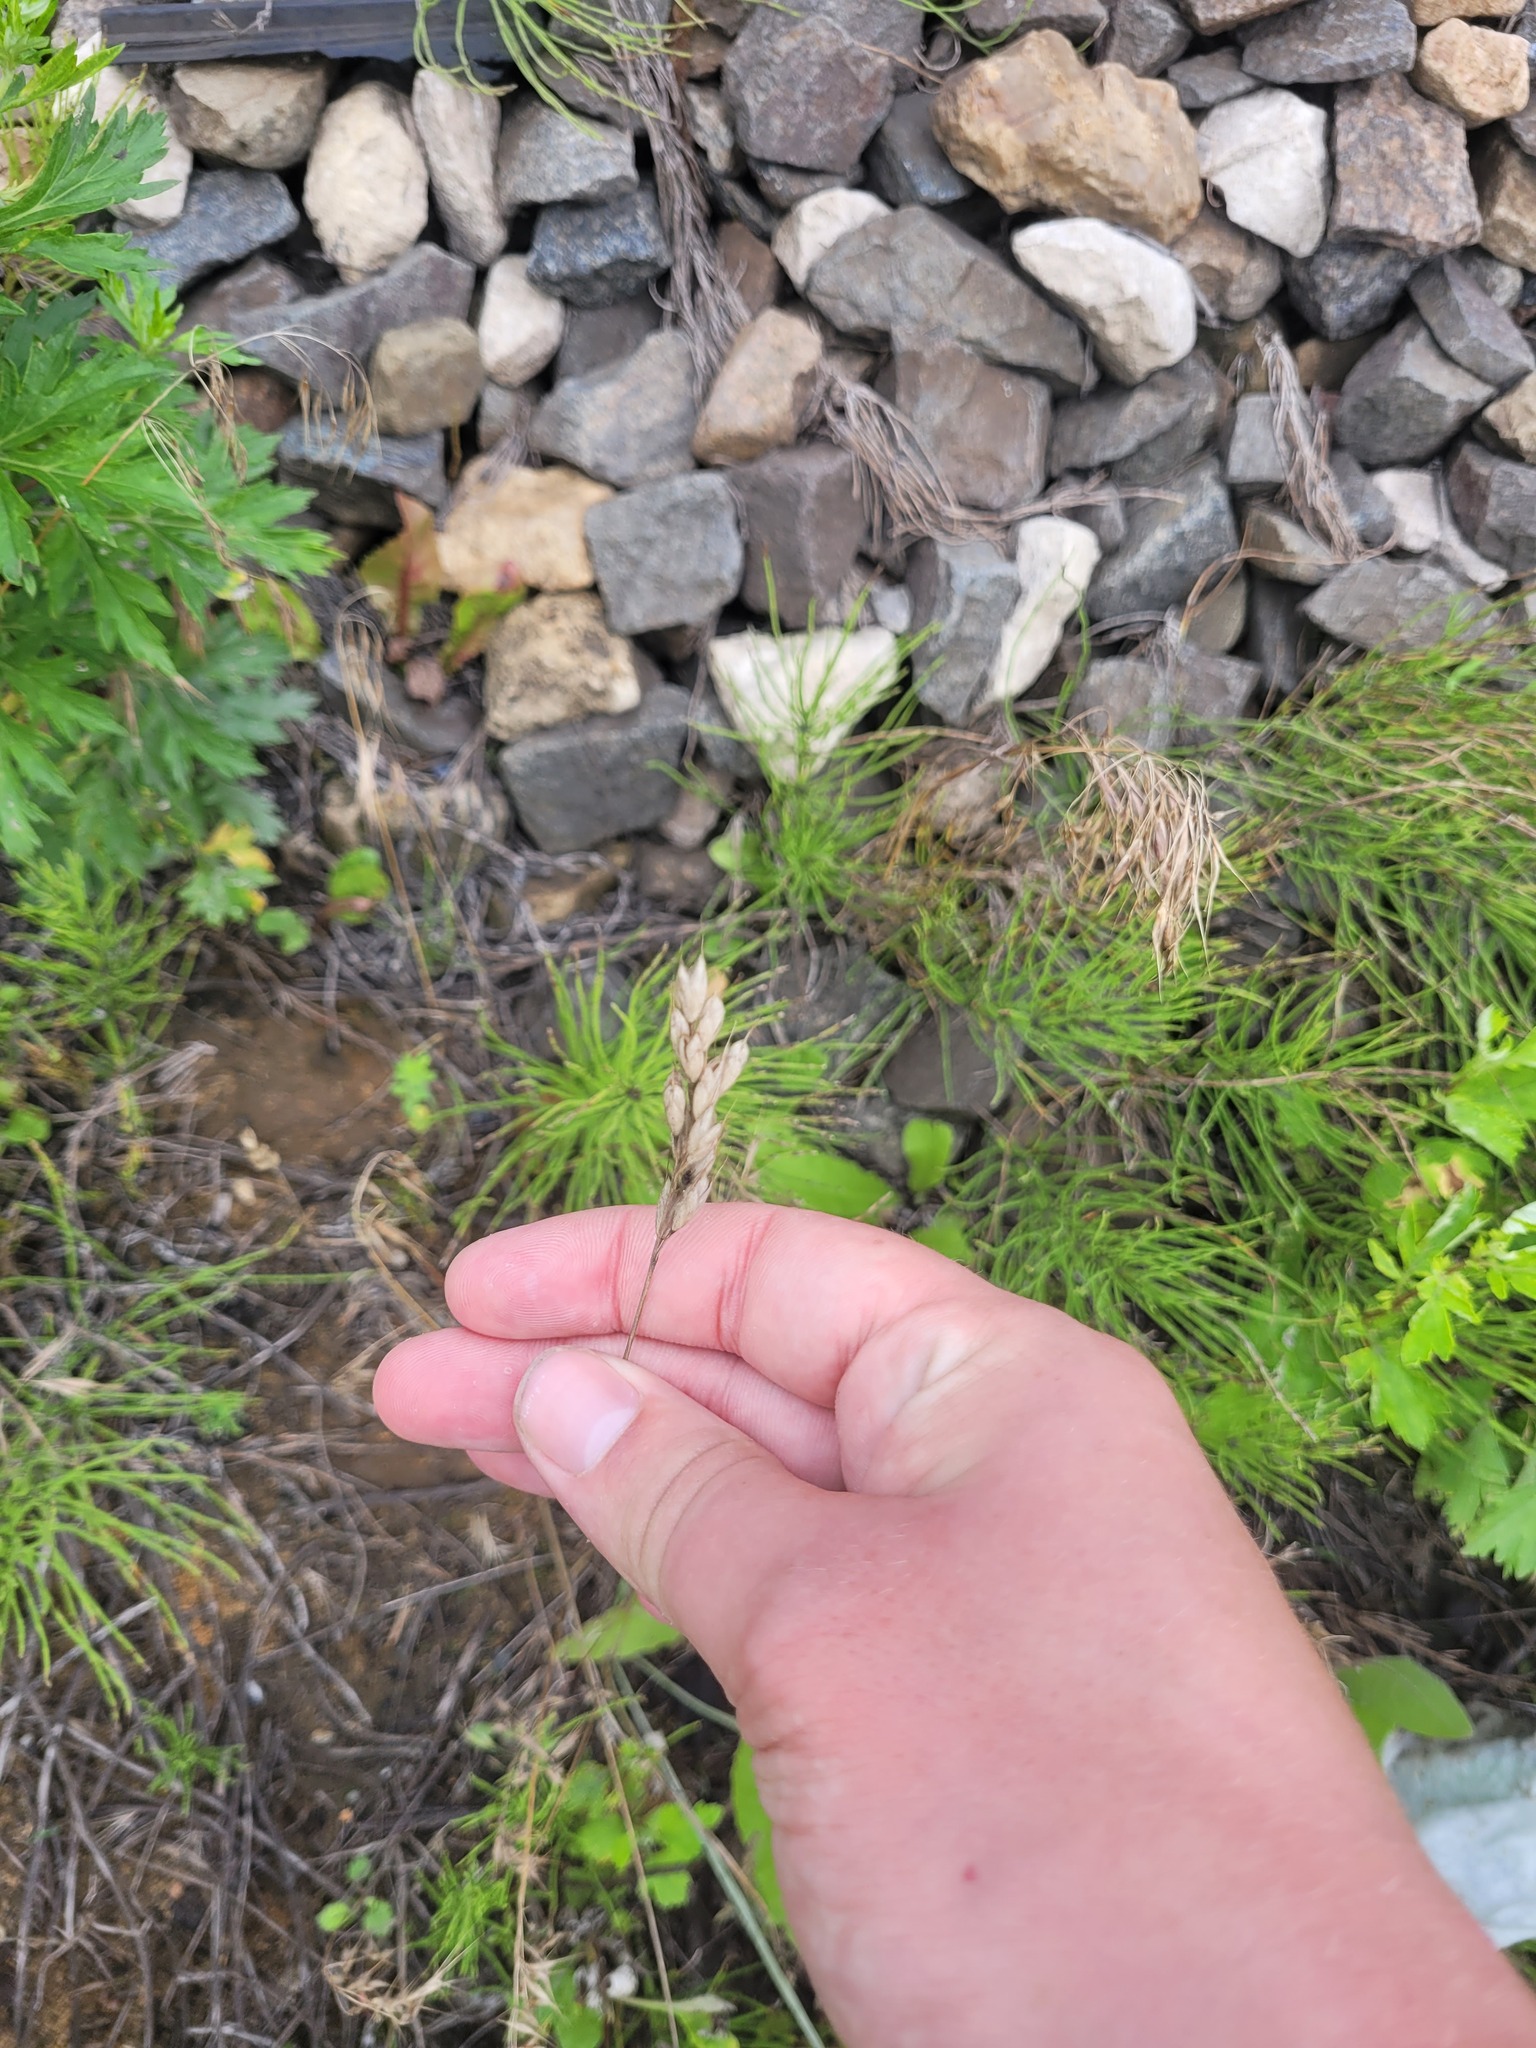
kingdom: Plantae
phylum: Tracheophyta
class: Liliopsida
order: Poales
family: Poaceae
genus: Bromus
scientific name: Bromus hordeaceus
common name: Soft brome
